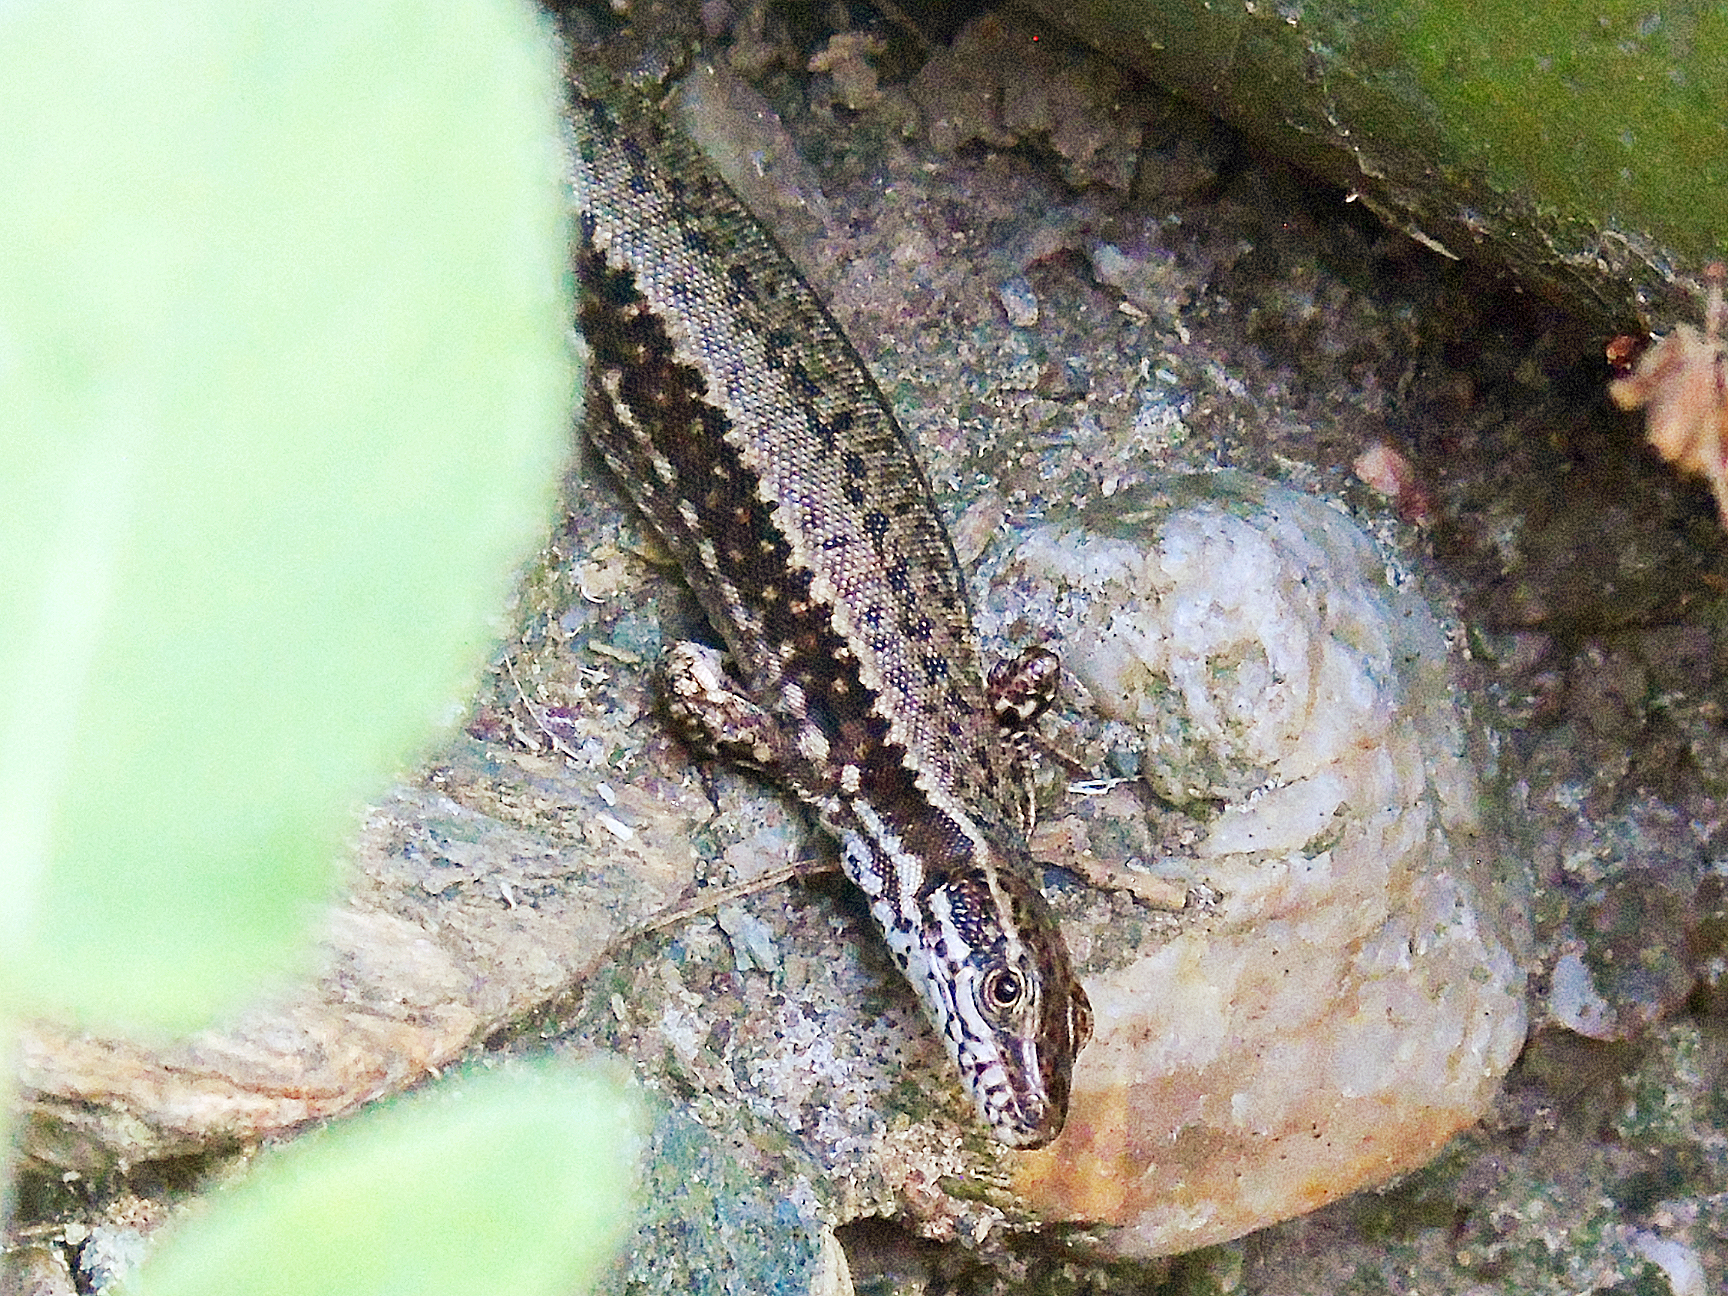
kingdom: Animalia
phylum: Chordata
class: Squamata
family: Lacertidae
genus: Podarcis
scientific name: Podarcis muralis
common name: Common wall lizard
